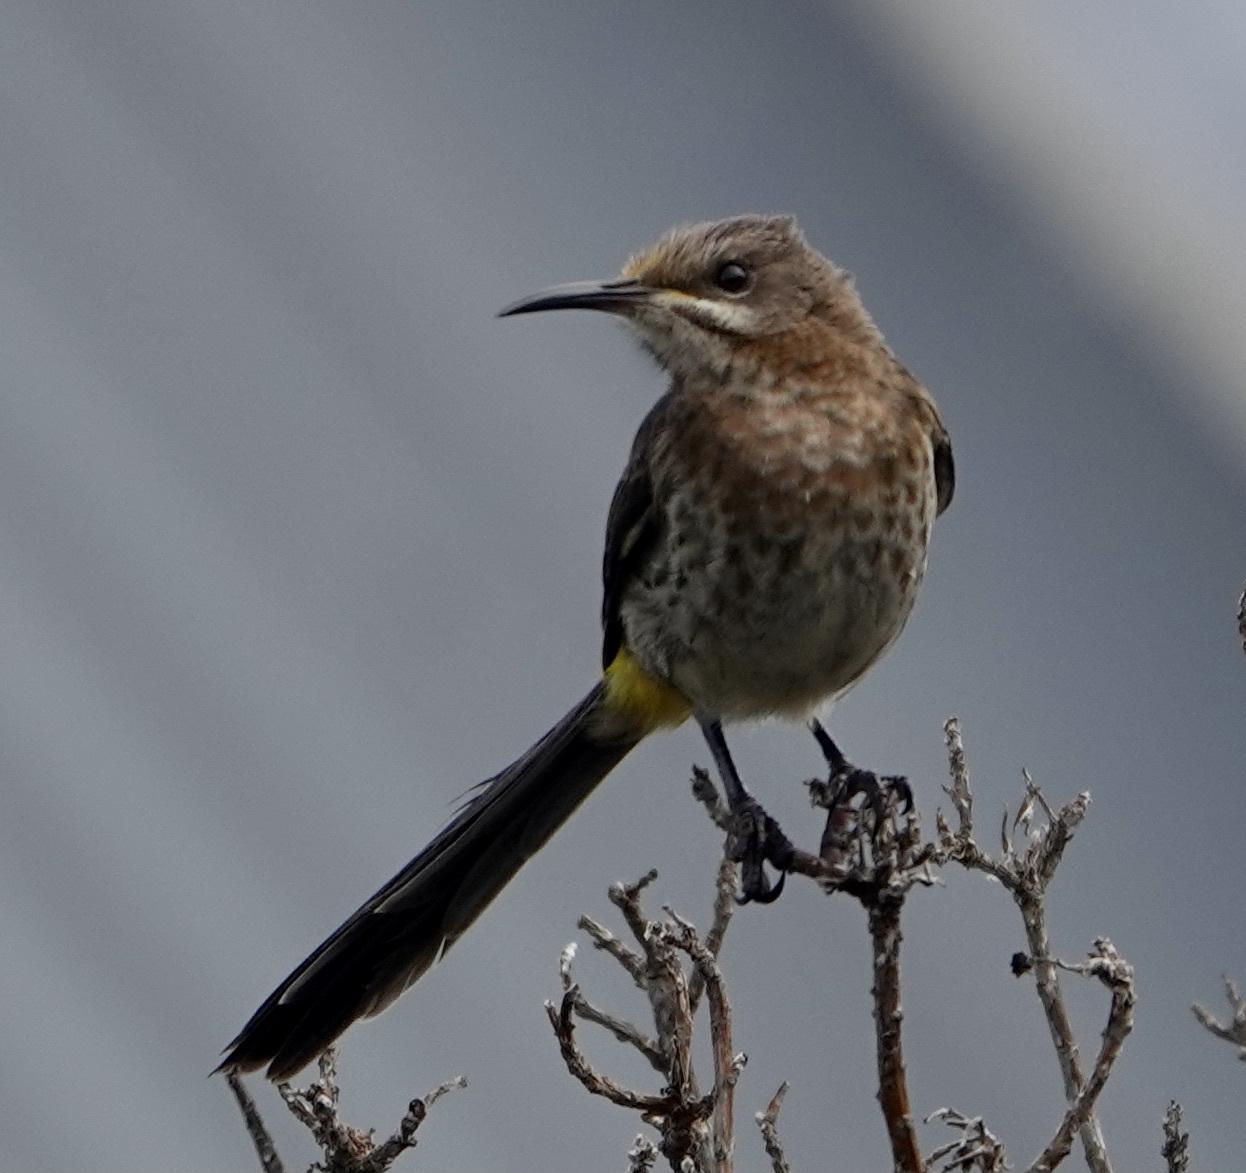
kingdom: Animalia
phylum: Chordata
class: Aves
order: Passeriformes
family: Promeropidae
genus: Promerops
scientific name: Promerops cafer
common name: Cape sugarbird
